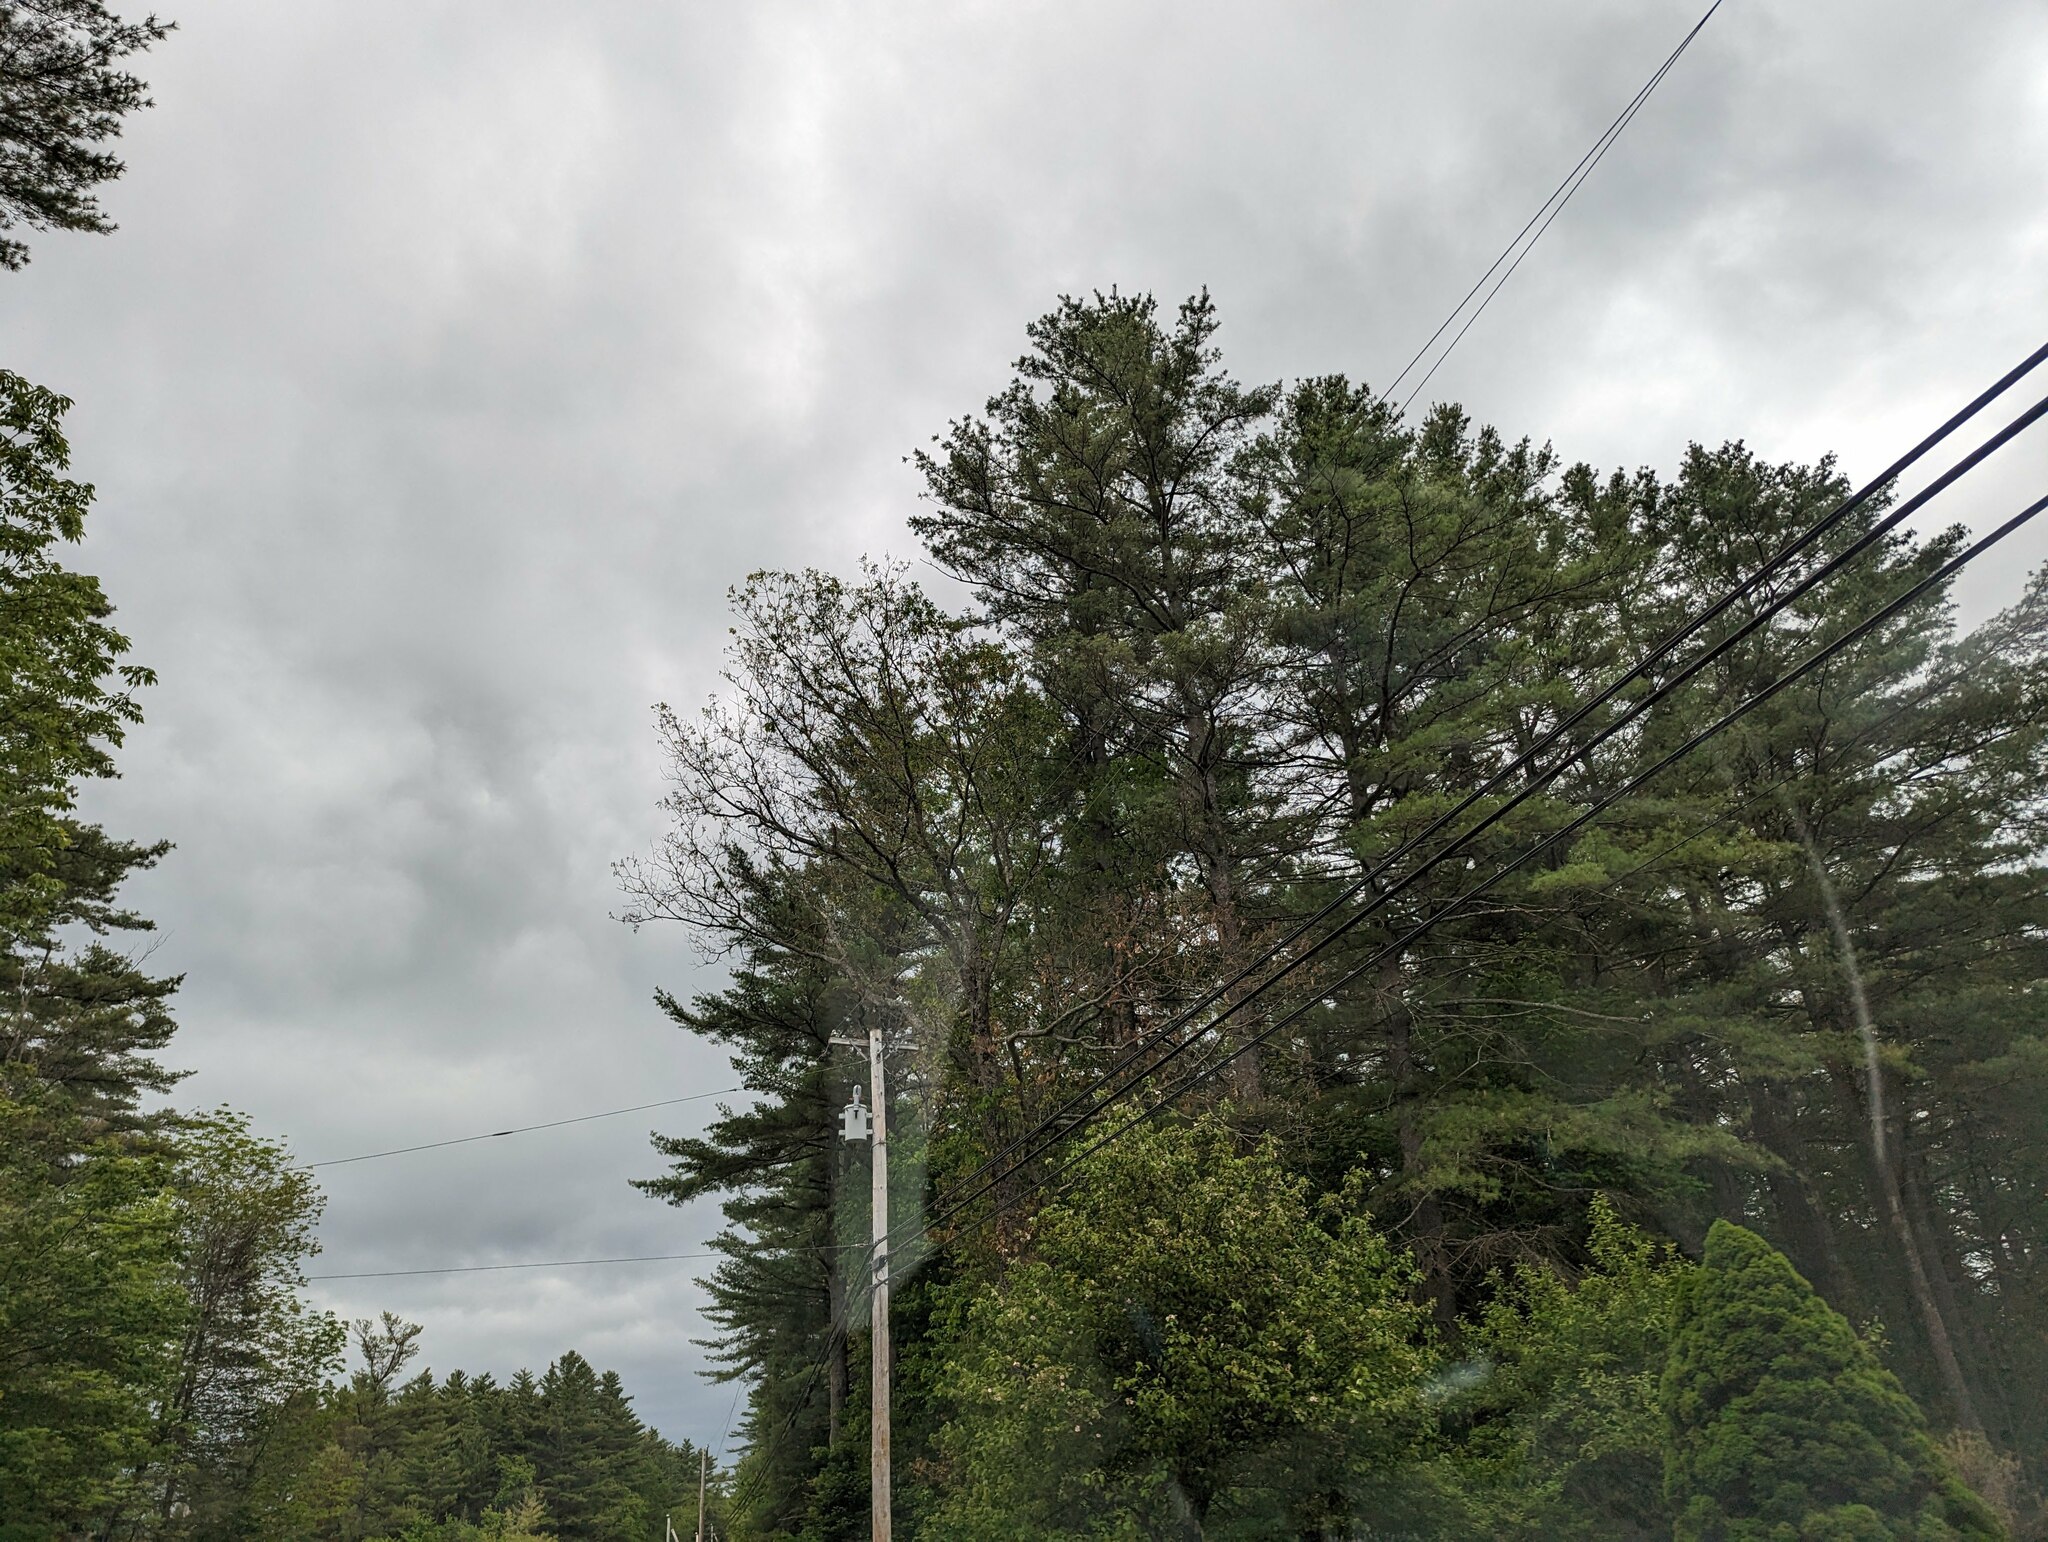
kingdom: Plantae
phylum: Tracheophyta
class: Pinopsida
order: Pinales
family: Pinaceae
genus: Pinus
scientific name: Pinus strobus
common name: Weymouth pine
